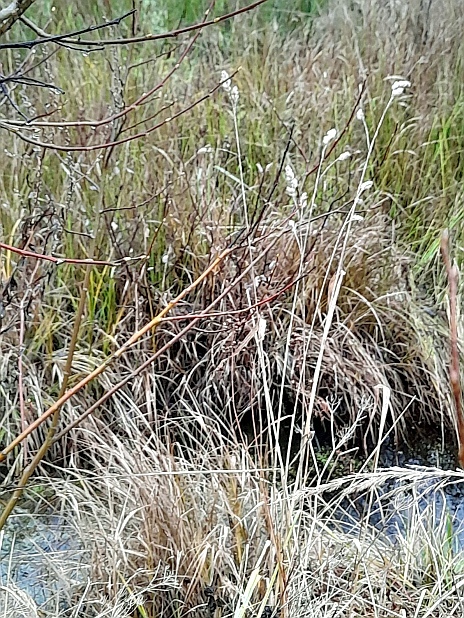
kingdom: Plantae
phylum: Tracheophyta
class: Liliopsida
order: Poales
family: Poaceae
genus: Dactylis
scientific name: Dactylis glomerata
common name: Orchardgrass
